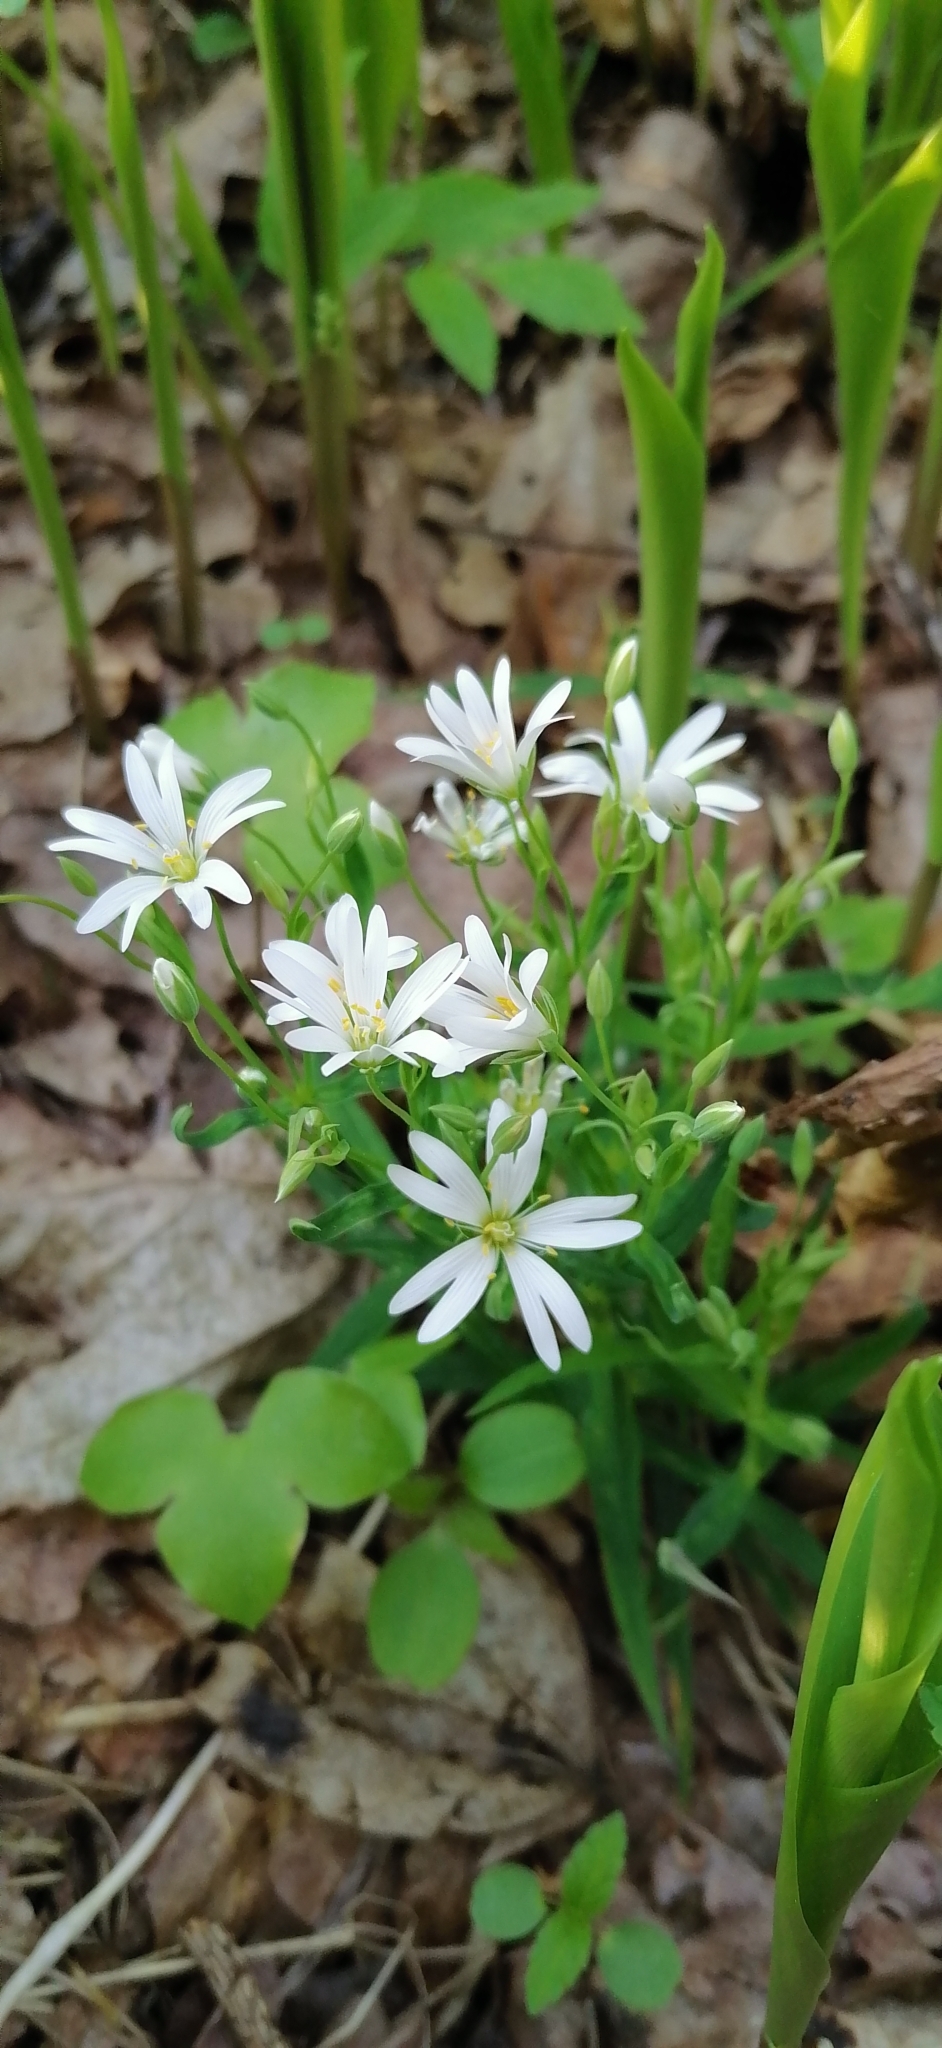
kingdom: Plantae
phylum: Tracheophyta
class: Magnoliopsida
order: Caryophyllales
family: Caryophyllaceae
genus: Rabelera
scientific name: Rabelera holostea
